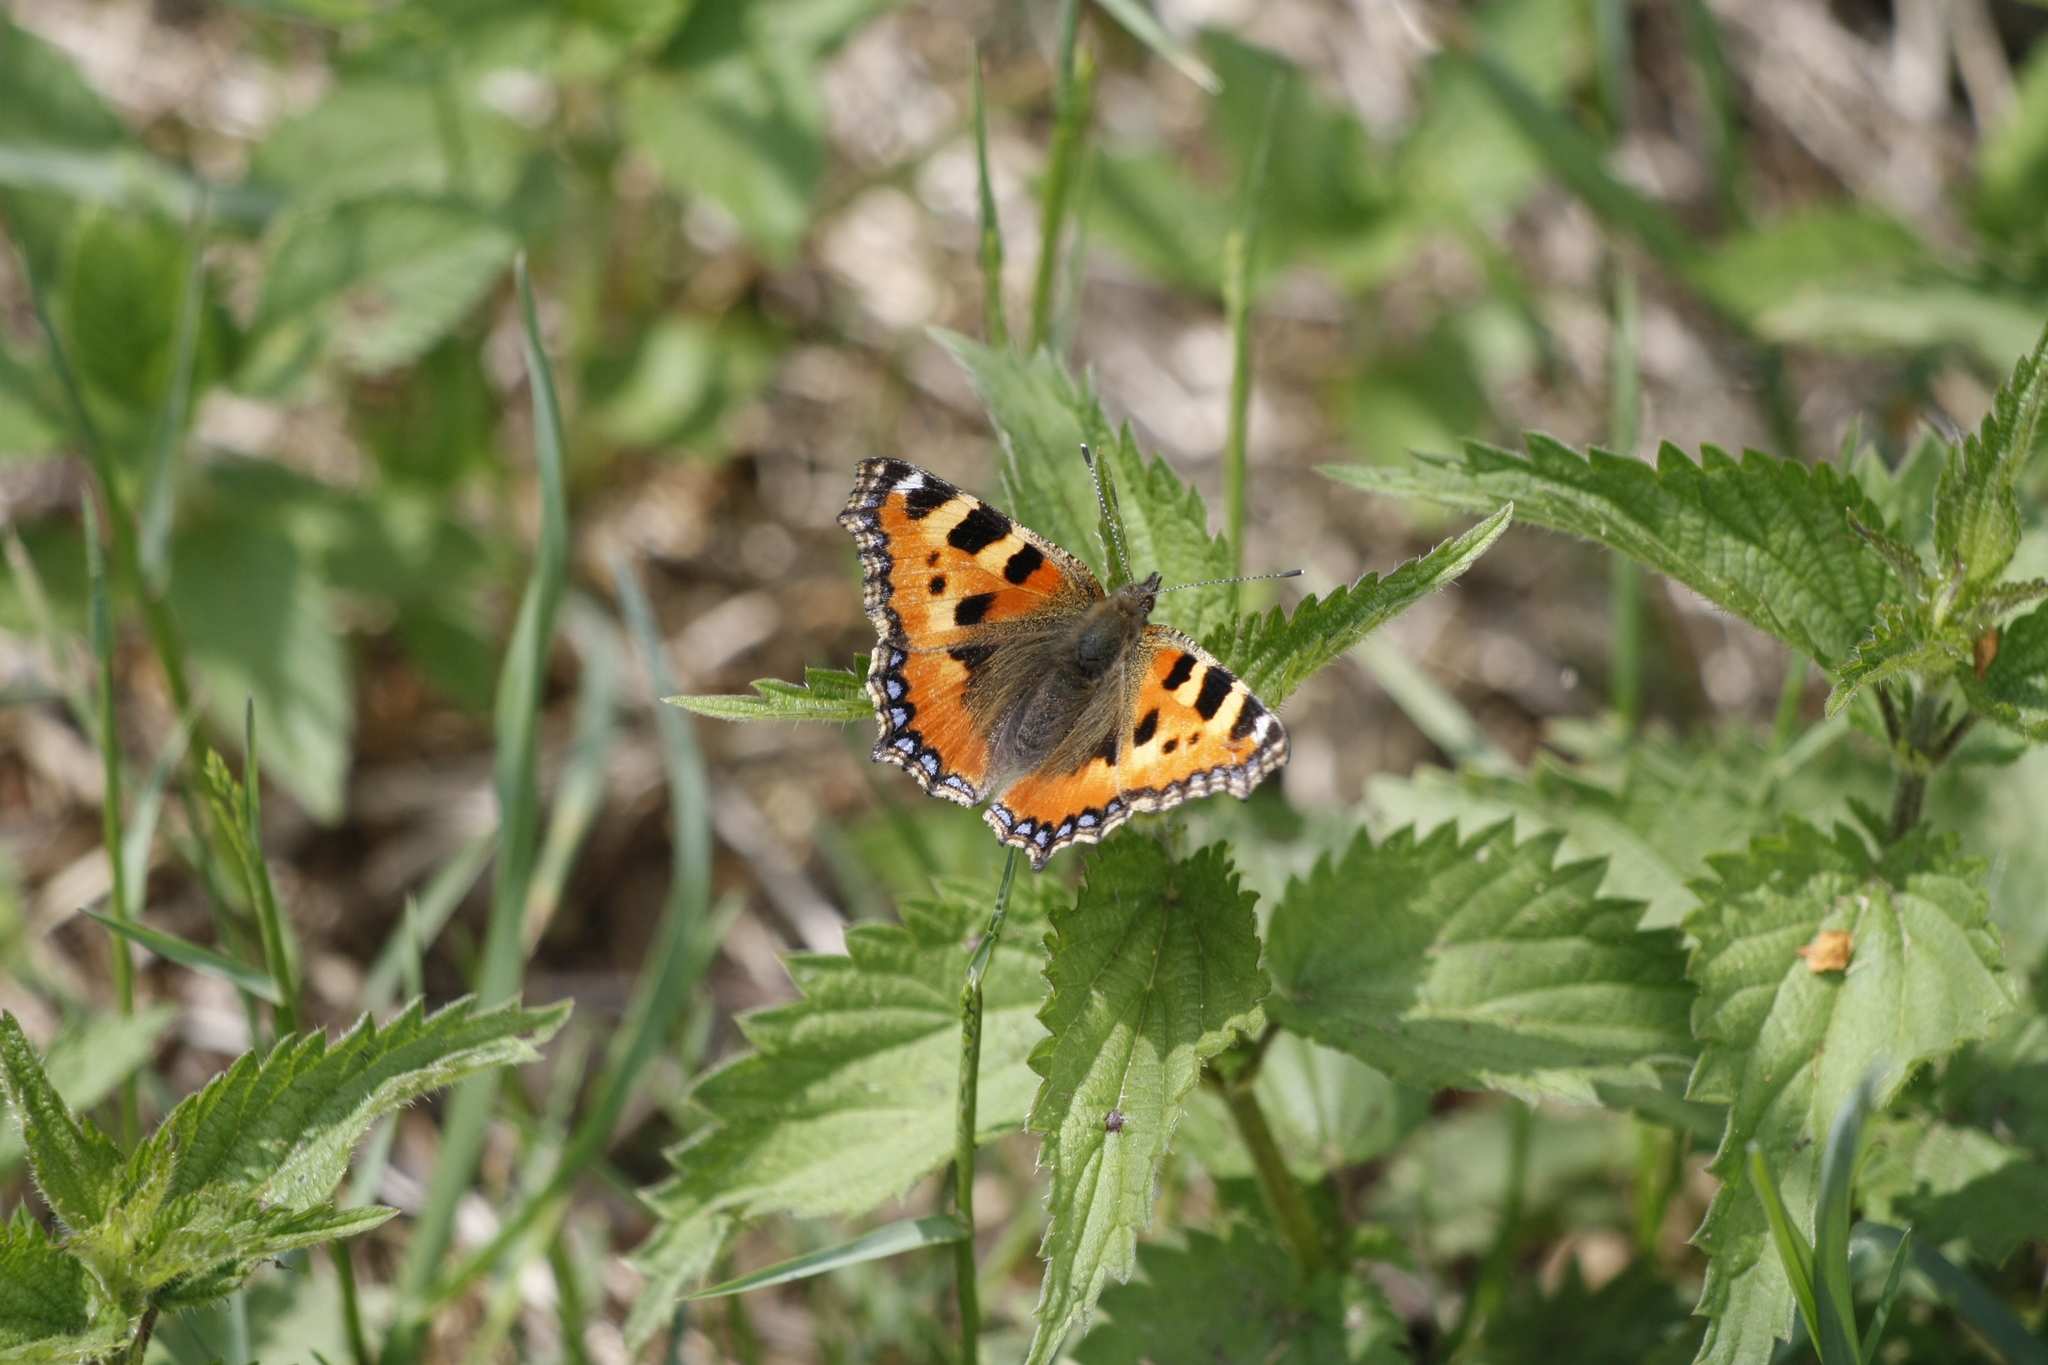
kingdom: Animalia
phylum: Arthropoda
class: Insecta
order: Lepidoptera
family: Nymphalidae
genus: Aglais
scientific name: Aglais urticae
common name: Small tortoiseshell
